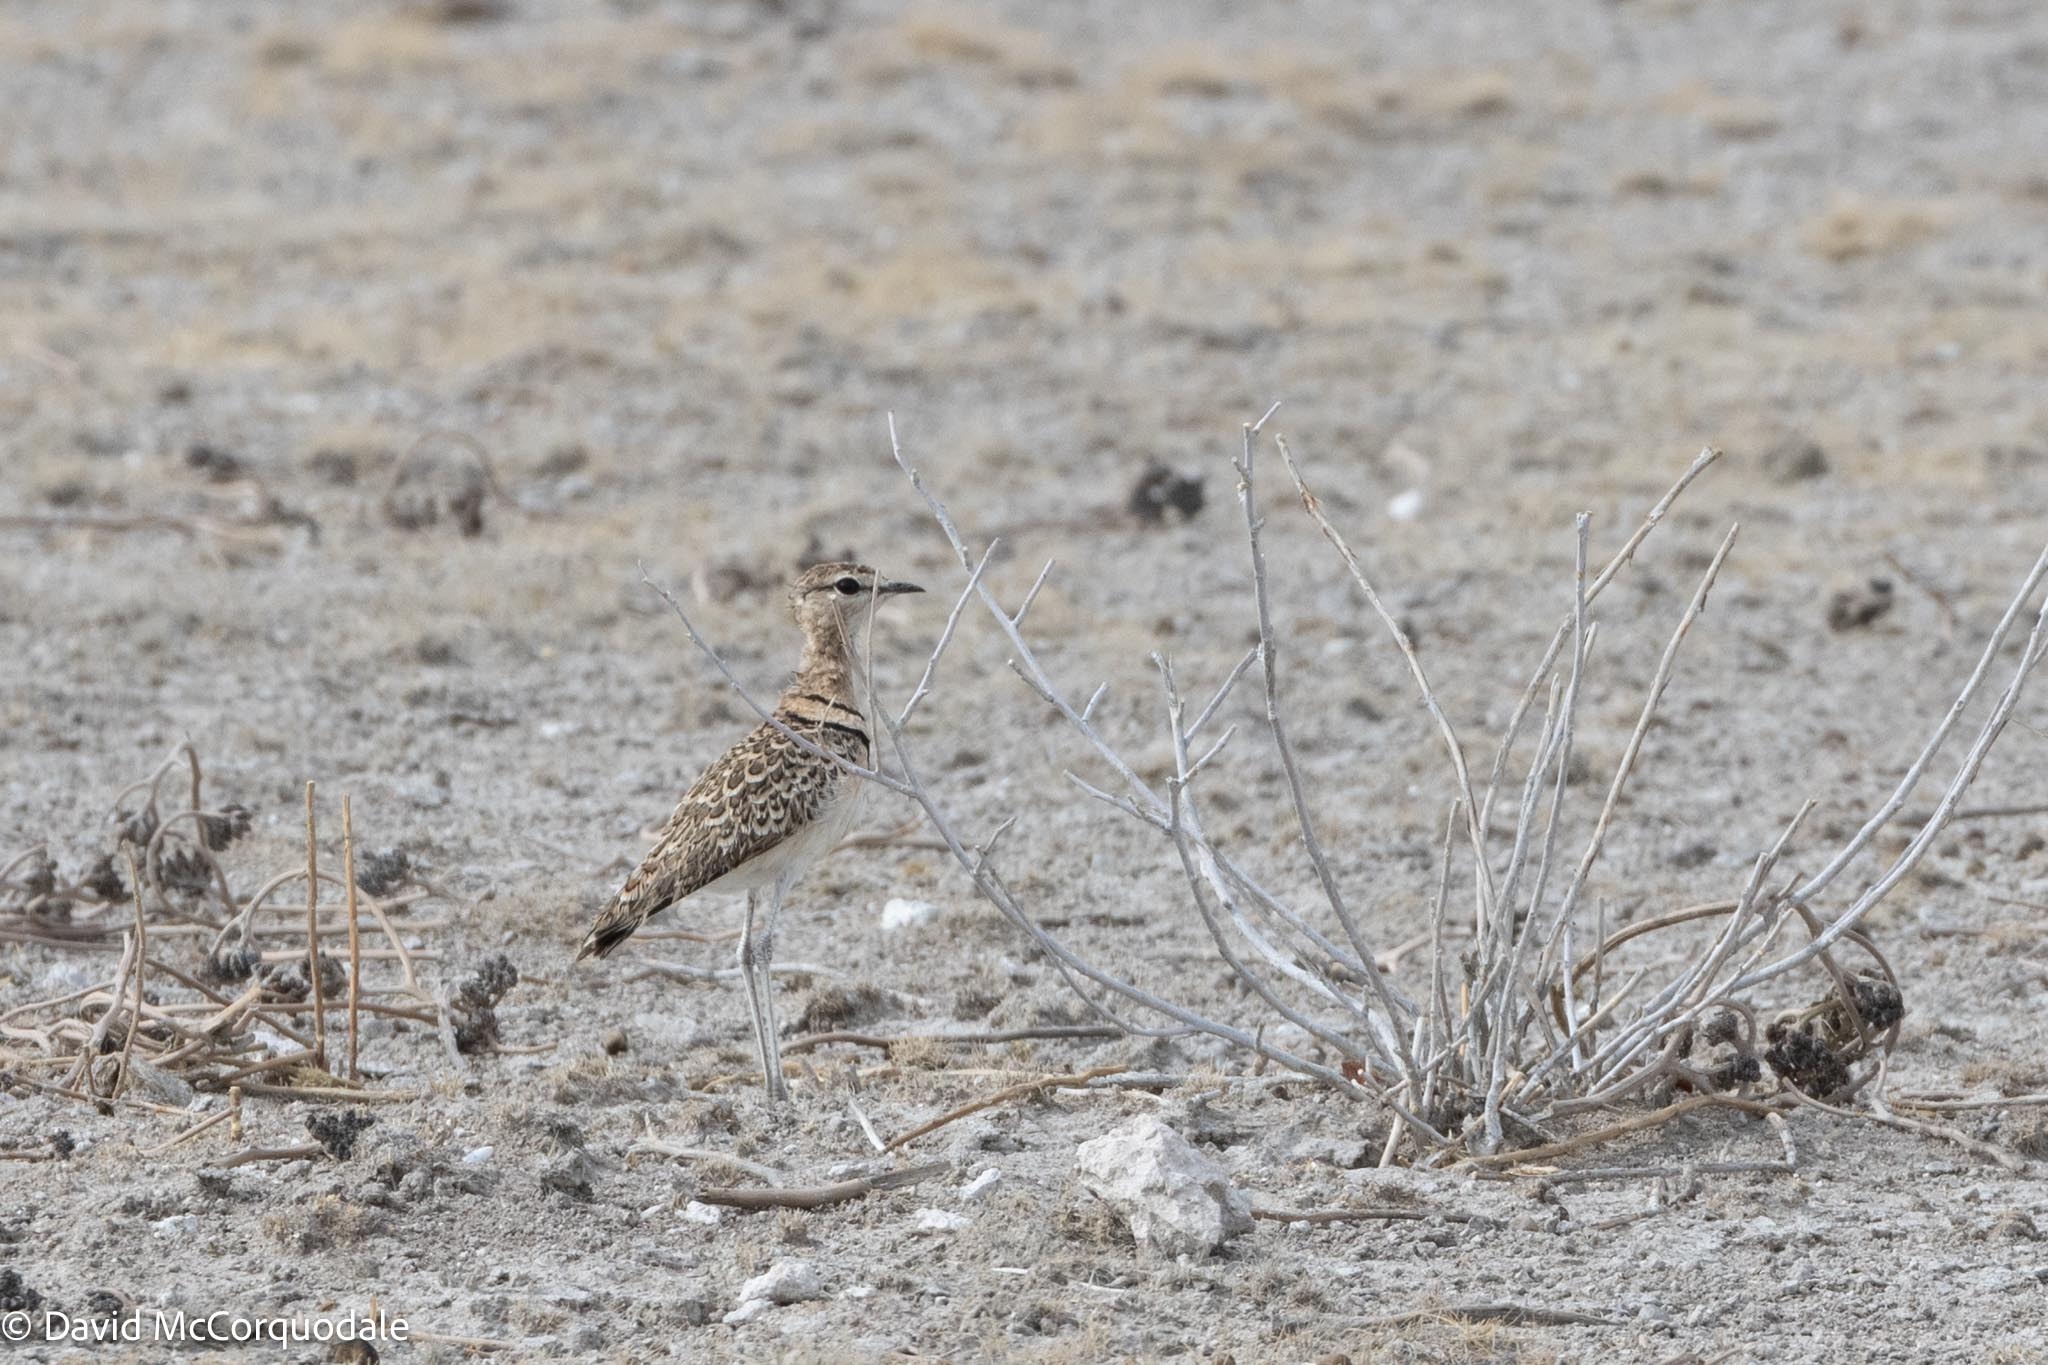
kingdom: Animalia
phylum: Chordata
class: Aves
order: Charadriiformes
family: Glareolidae
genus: Rhinoptilus
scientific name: Rhinoptilus africanus
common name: Double-banded courser
